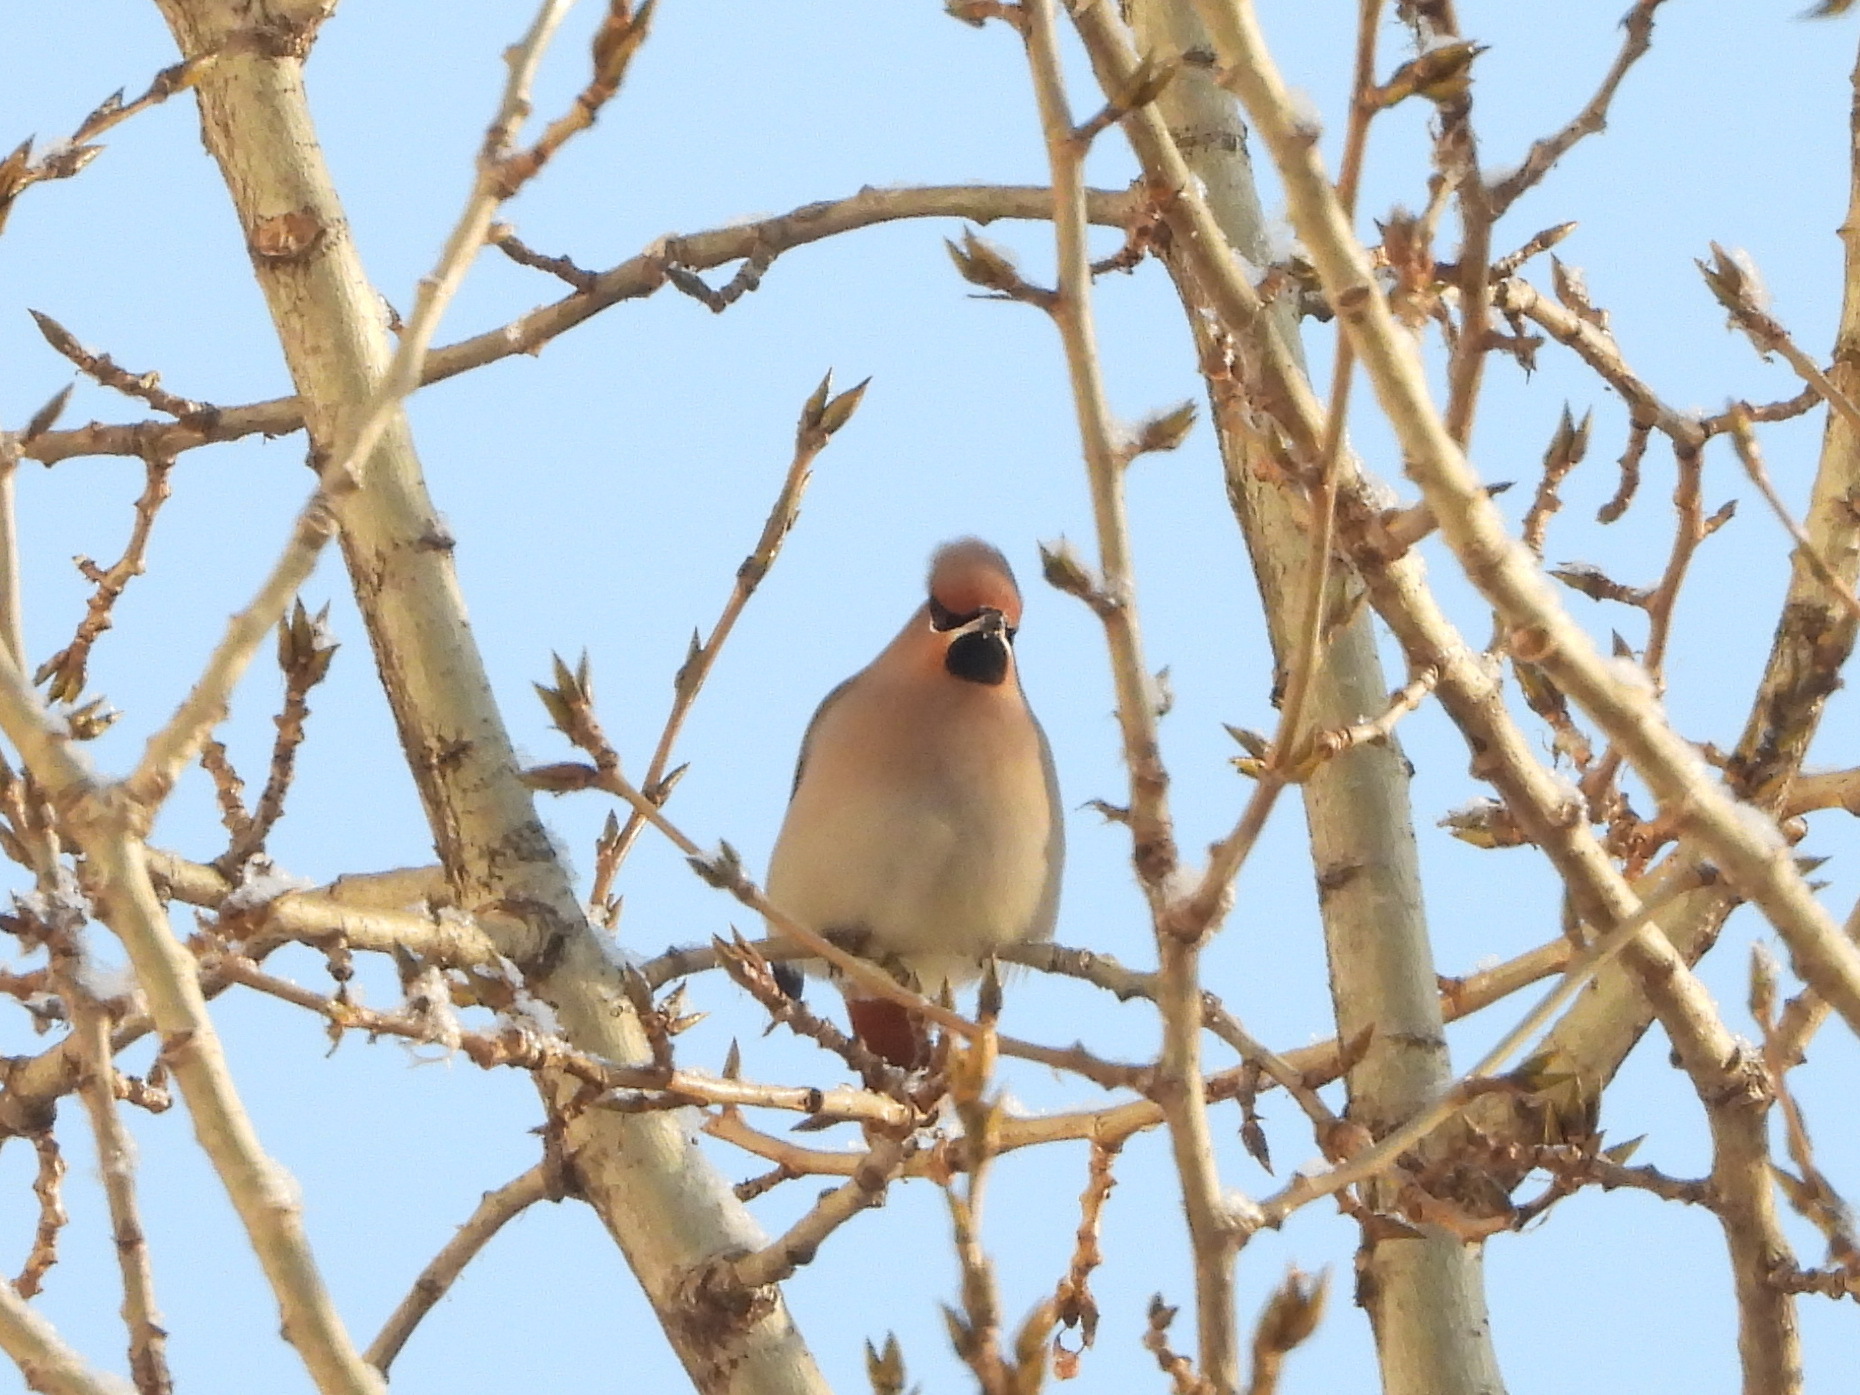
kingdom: Animalia
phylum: Chordata
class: Aves
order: Passeriformes
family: Bombycillidae
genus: Bombycilla
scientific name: Bombycilla garrulus
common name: Bohemian waxwing
